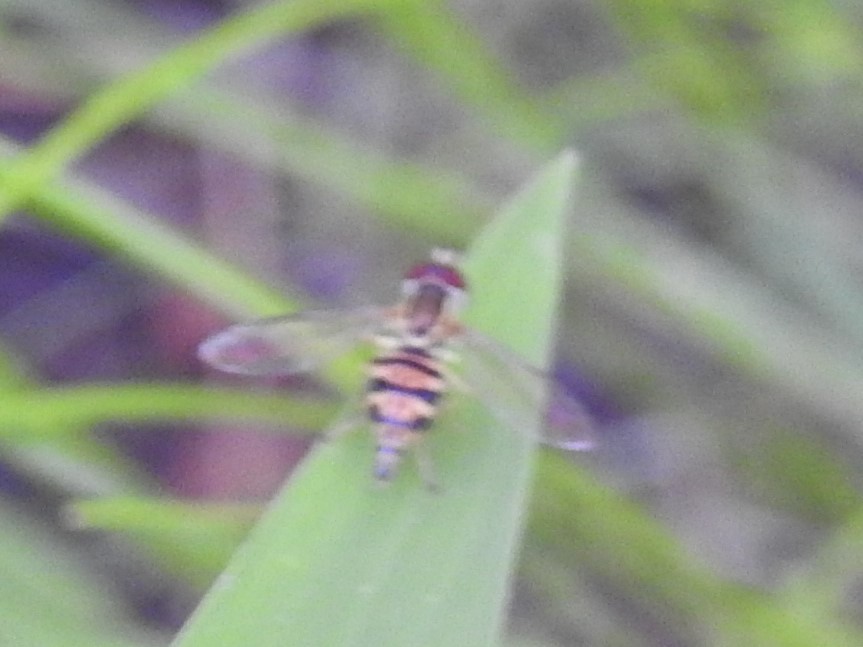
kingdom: Animalia
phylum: Arthropoda
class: Insecta
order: Diptera
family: Syrphidae
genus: Toxomerus
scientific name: Toxomerus geminatus
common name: Eastern calligrapher
